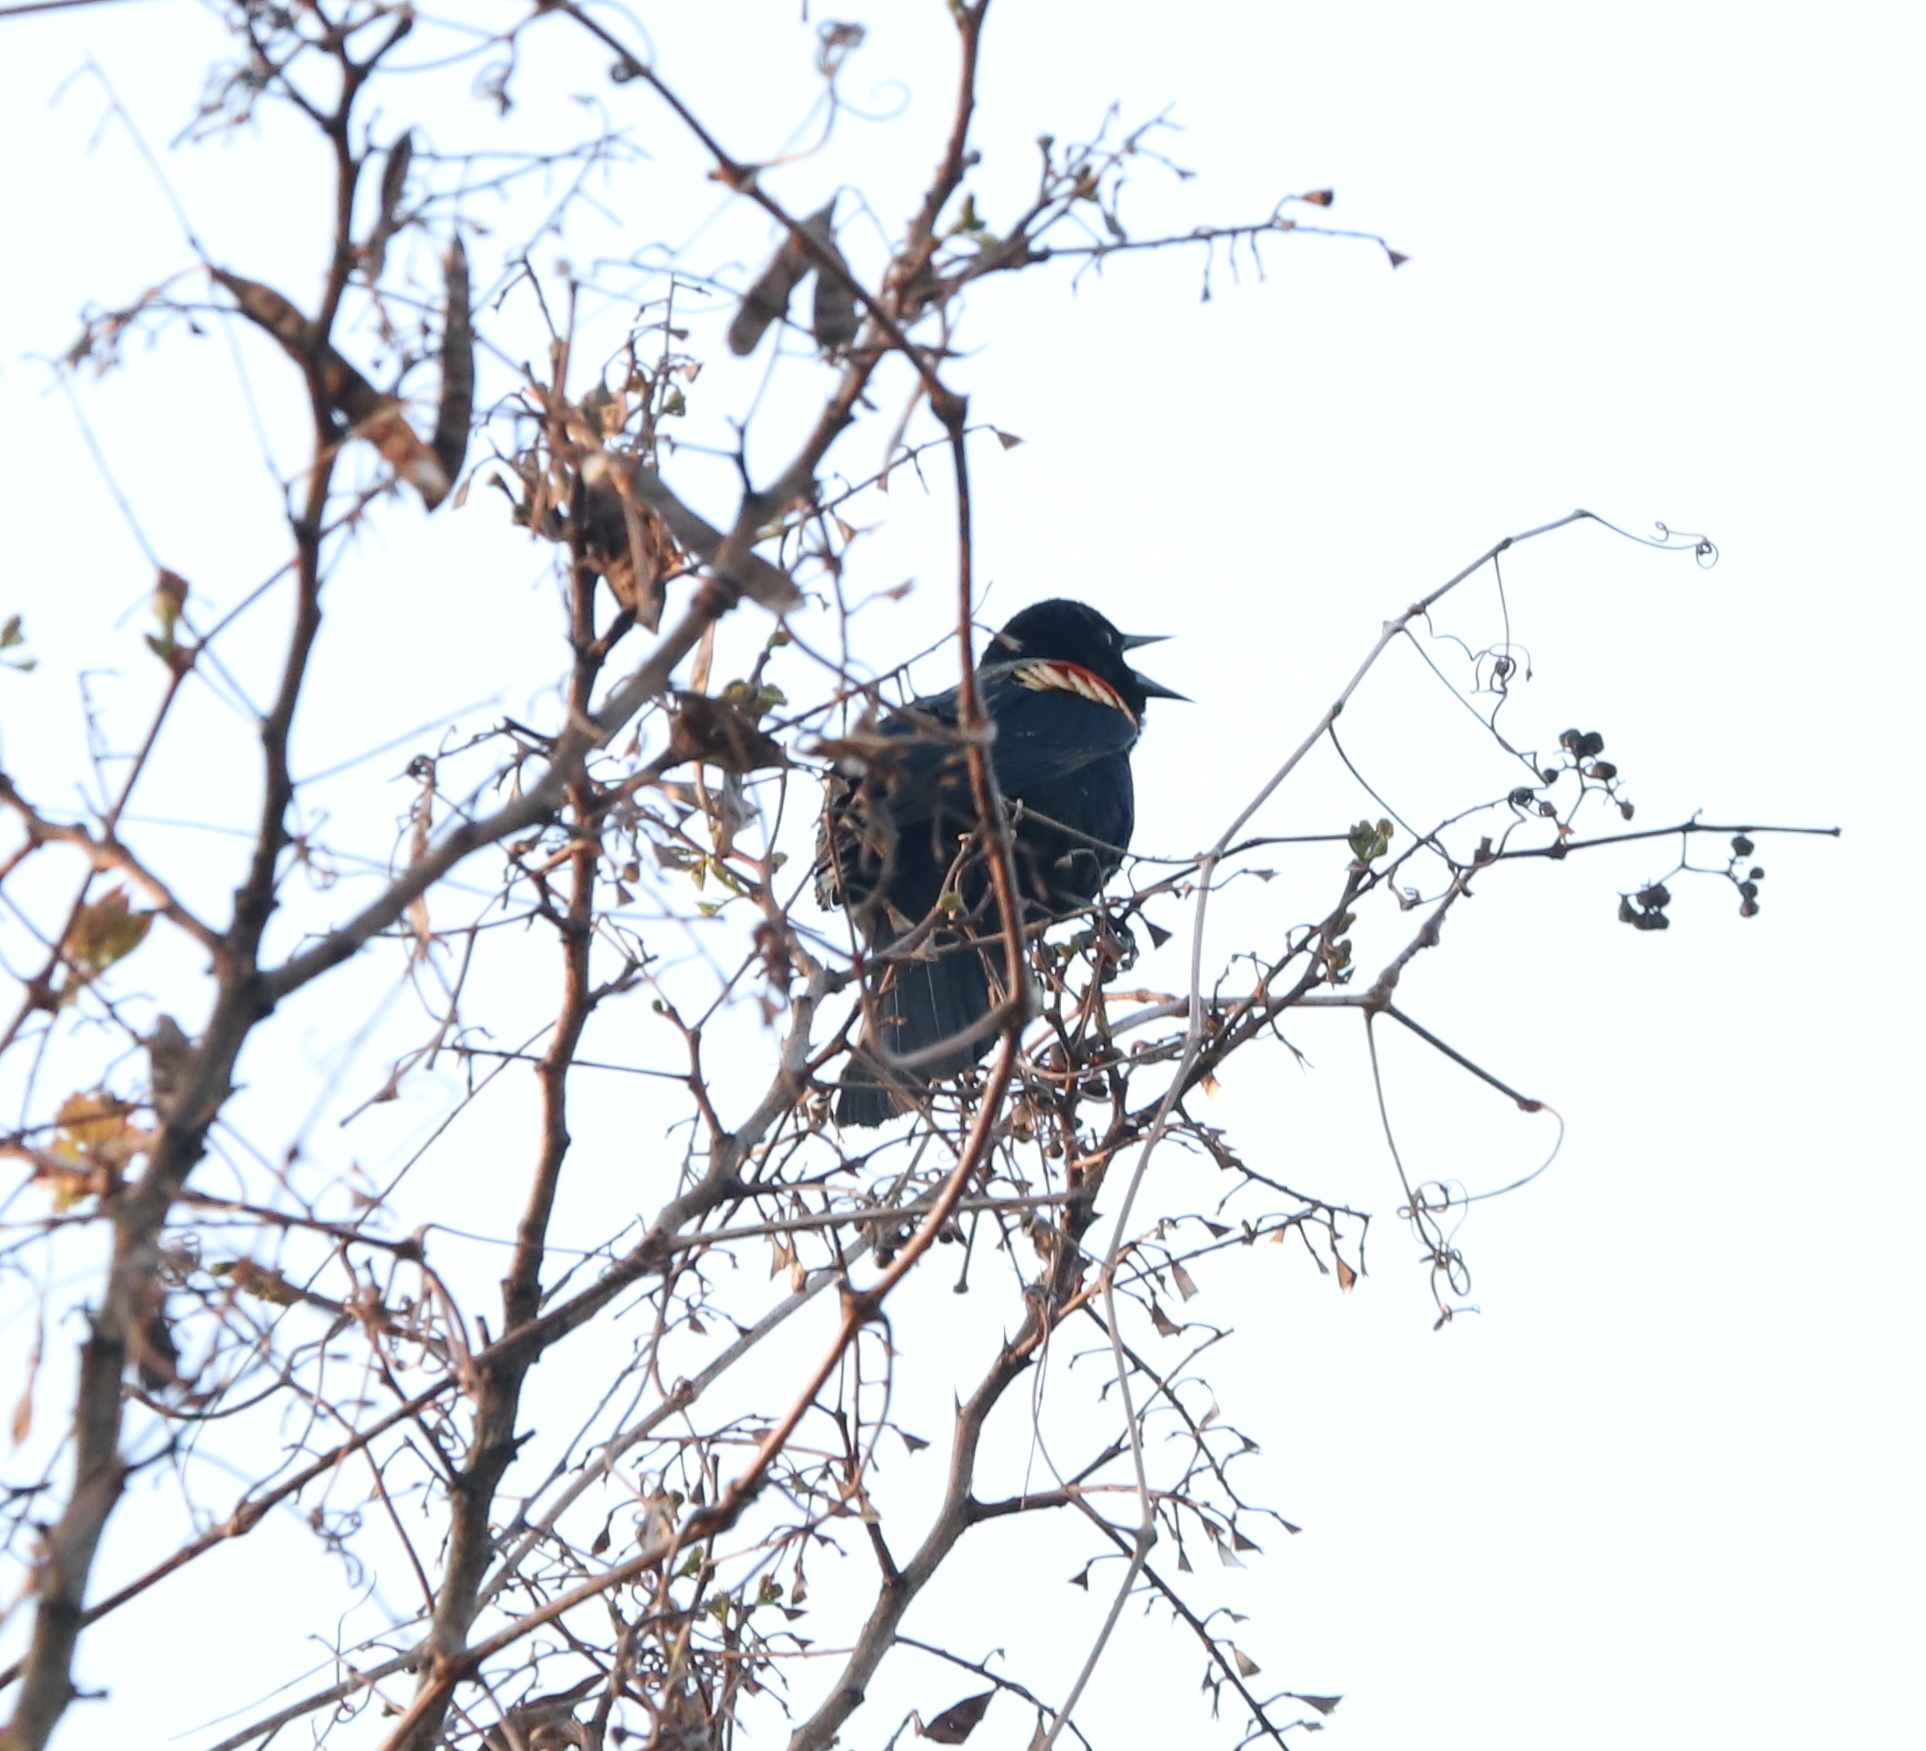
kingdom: Animalia
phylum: Chordata
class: Aves
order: Passeriformes
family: Icteridae
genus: Agelaius
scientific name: Agelaius phoeniceus
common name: Red-winged blackbird
